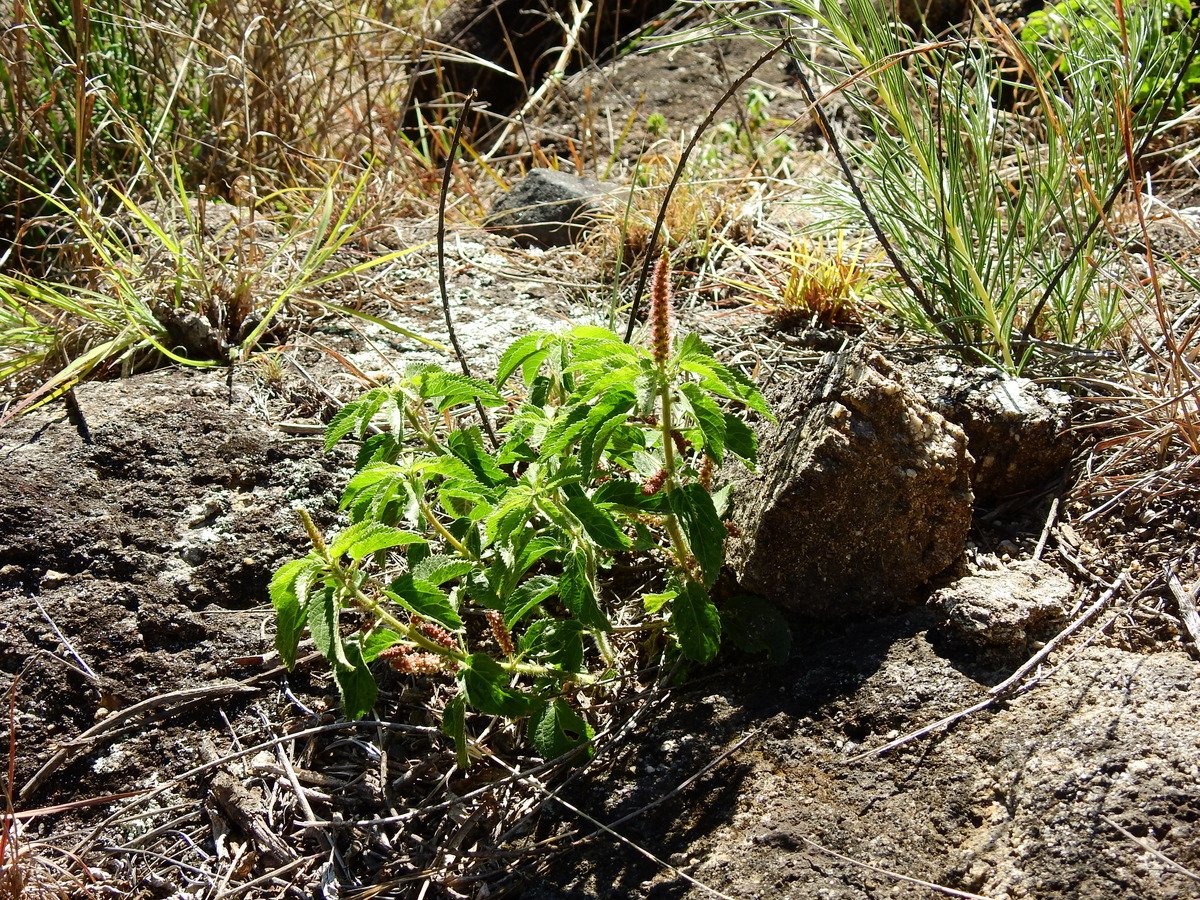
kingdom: Plantae
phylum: Tracheophyta
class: Magnoliopsida
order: Malpighiales
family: Euphorbiaceae
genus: Acalypha
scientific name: Acalypha communis
